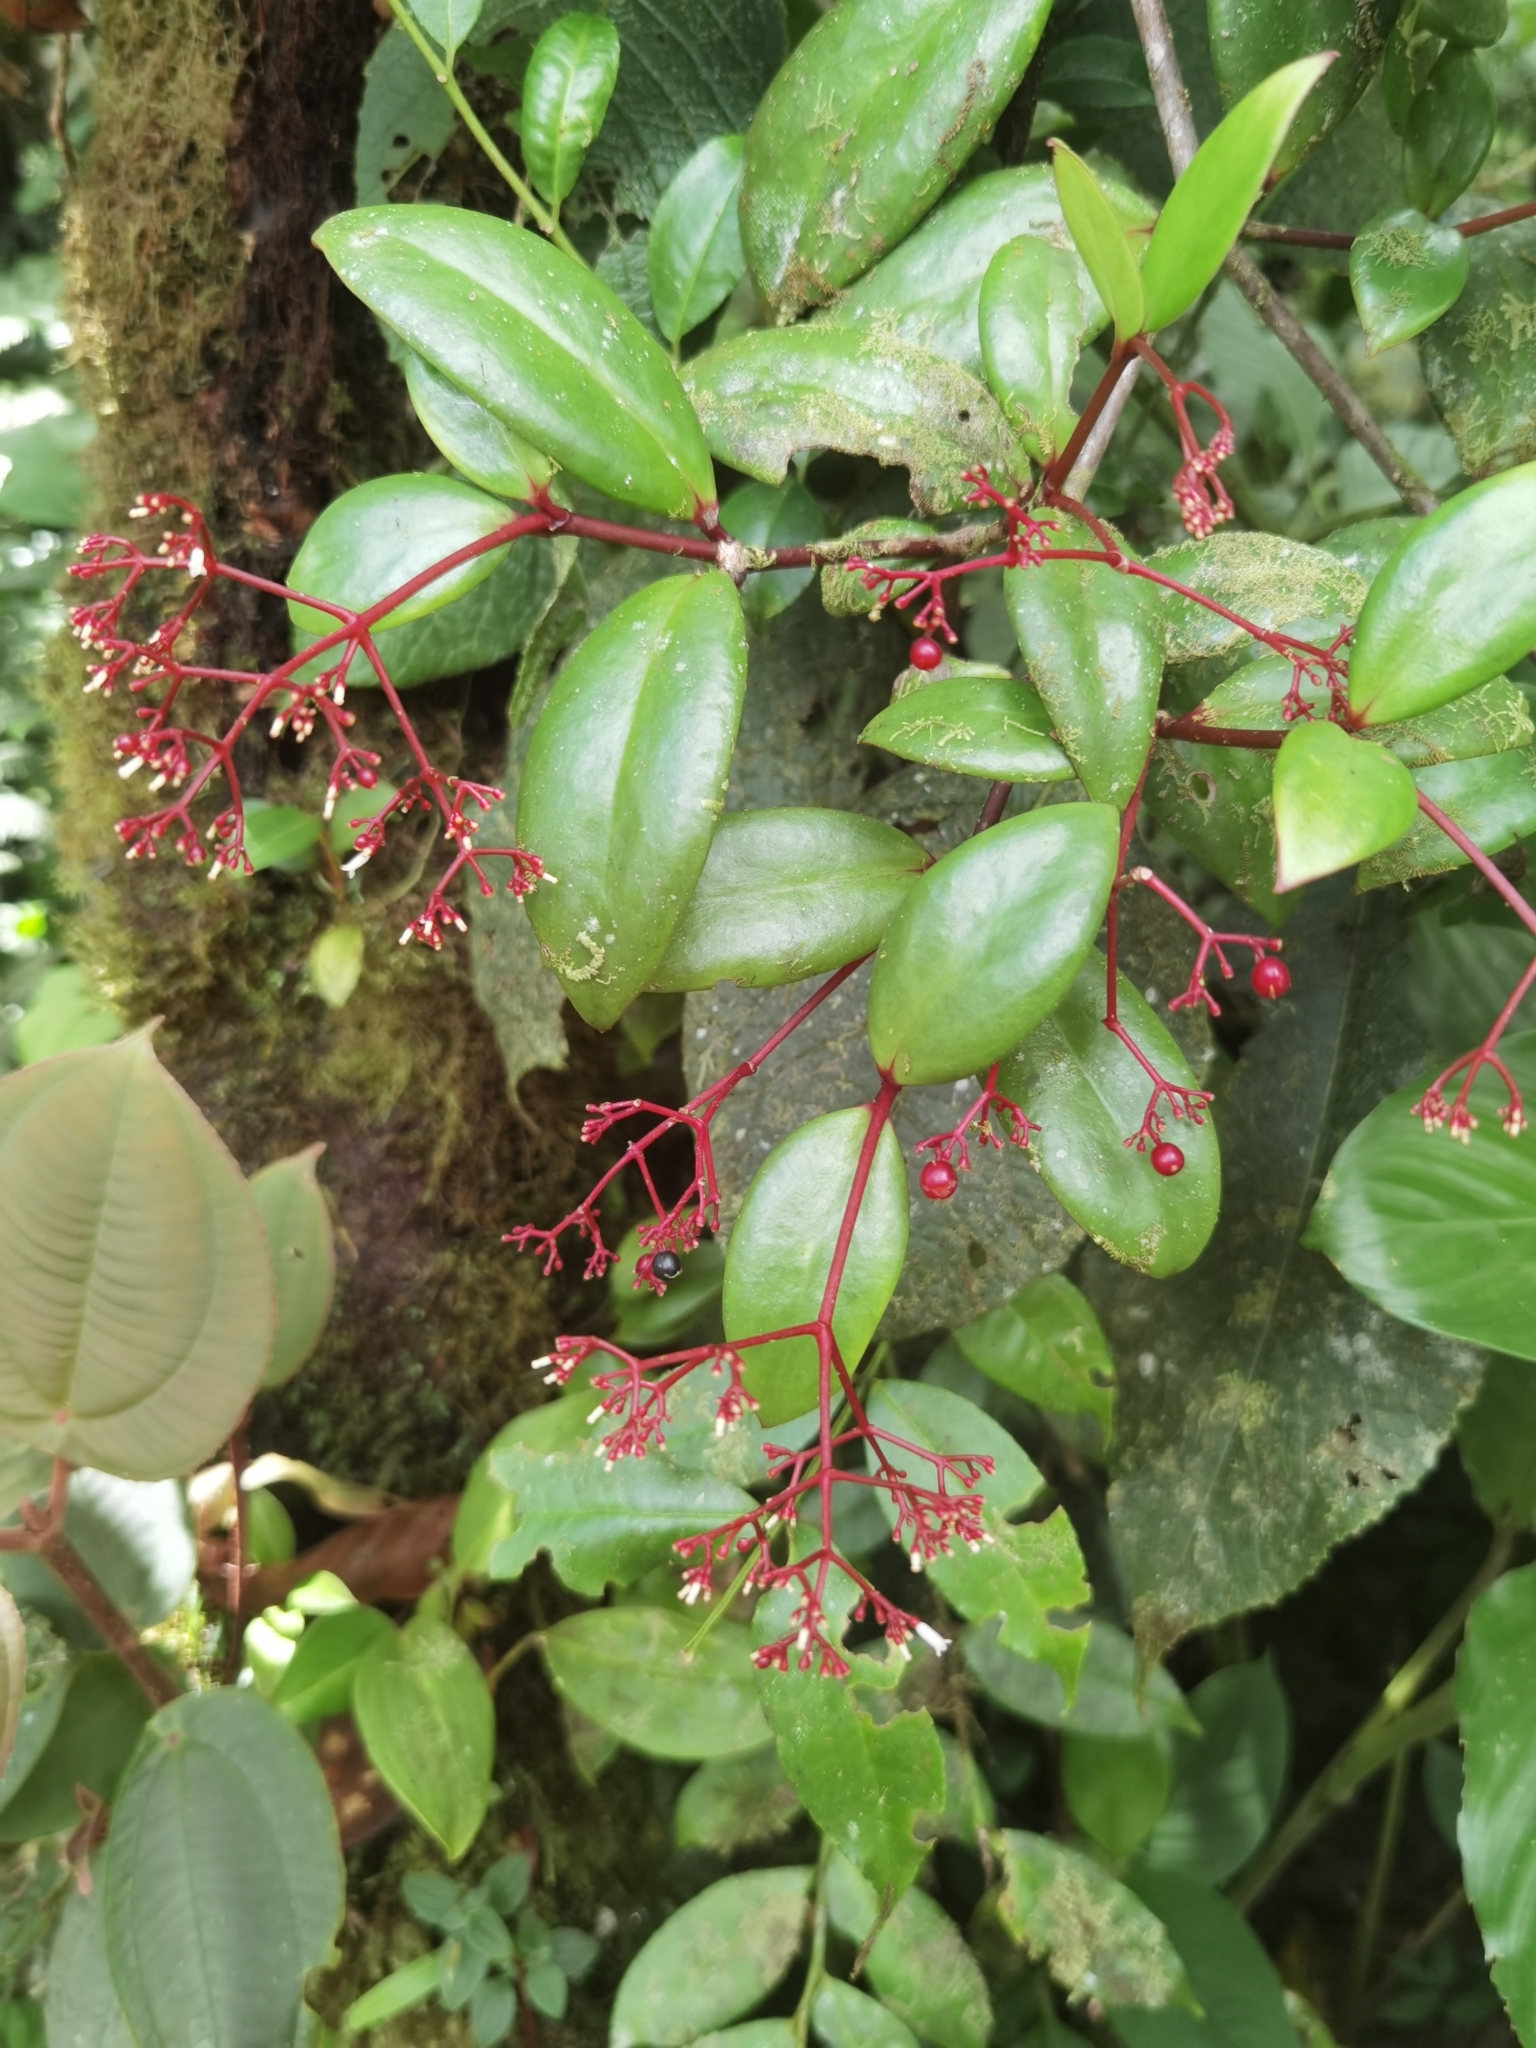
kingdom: Plantae
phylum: Tracheophyta
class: Magnoliopsida
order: Gentianales
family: Rubiaceae
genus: Notopleura
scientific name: Notopleura epiphytica
